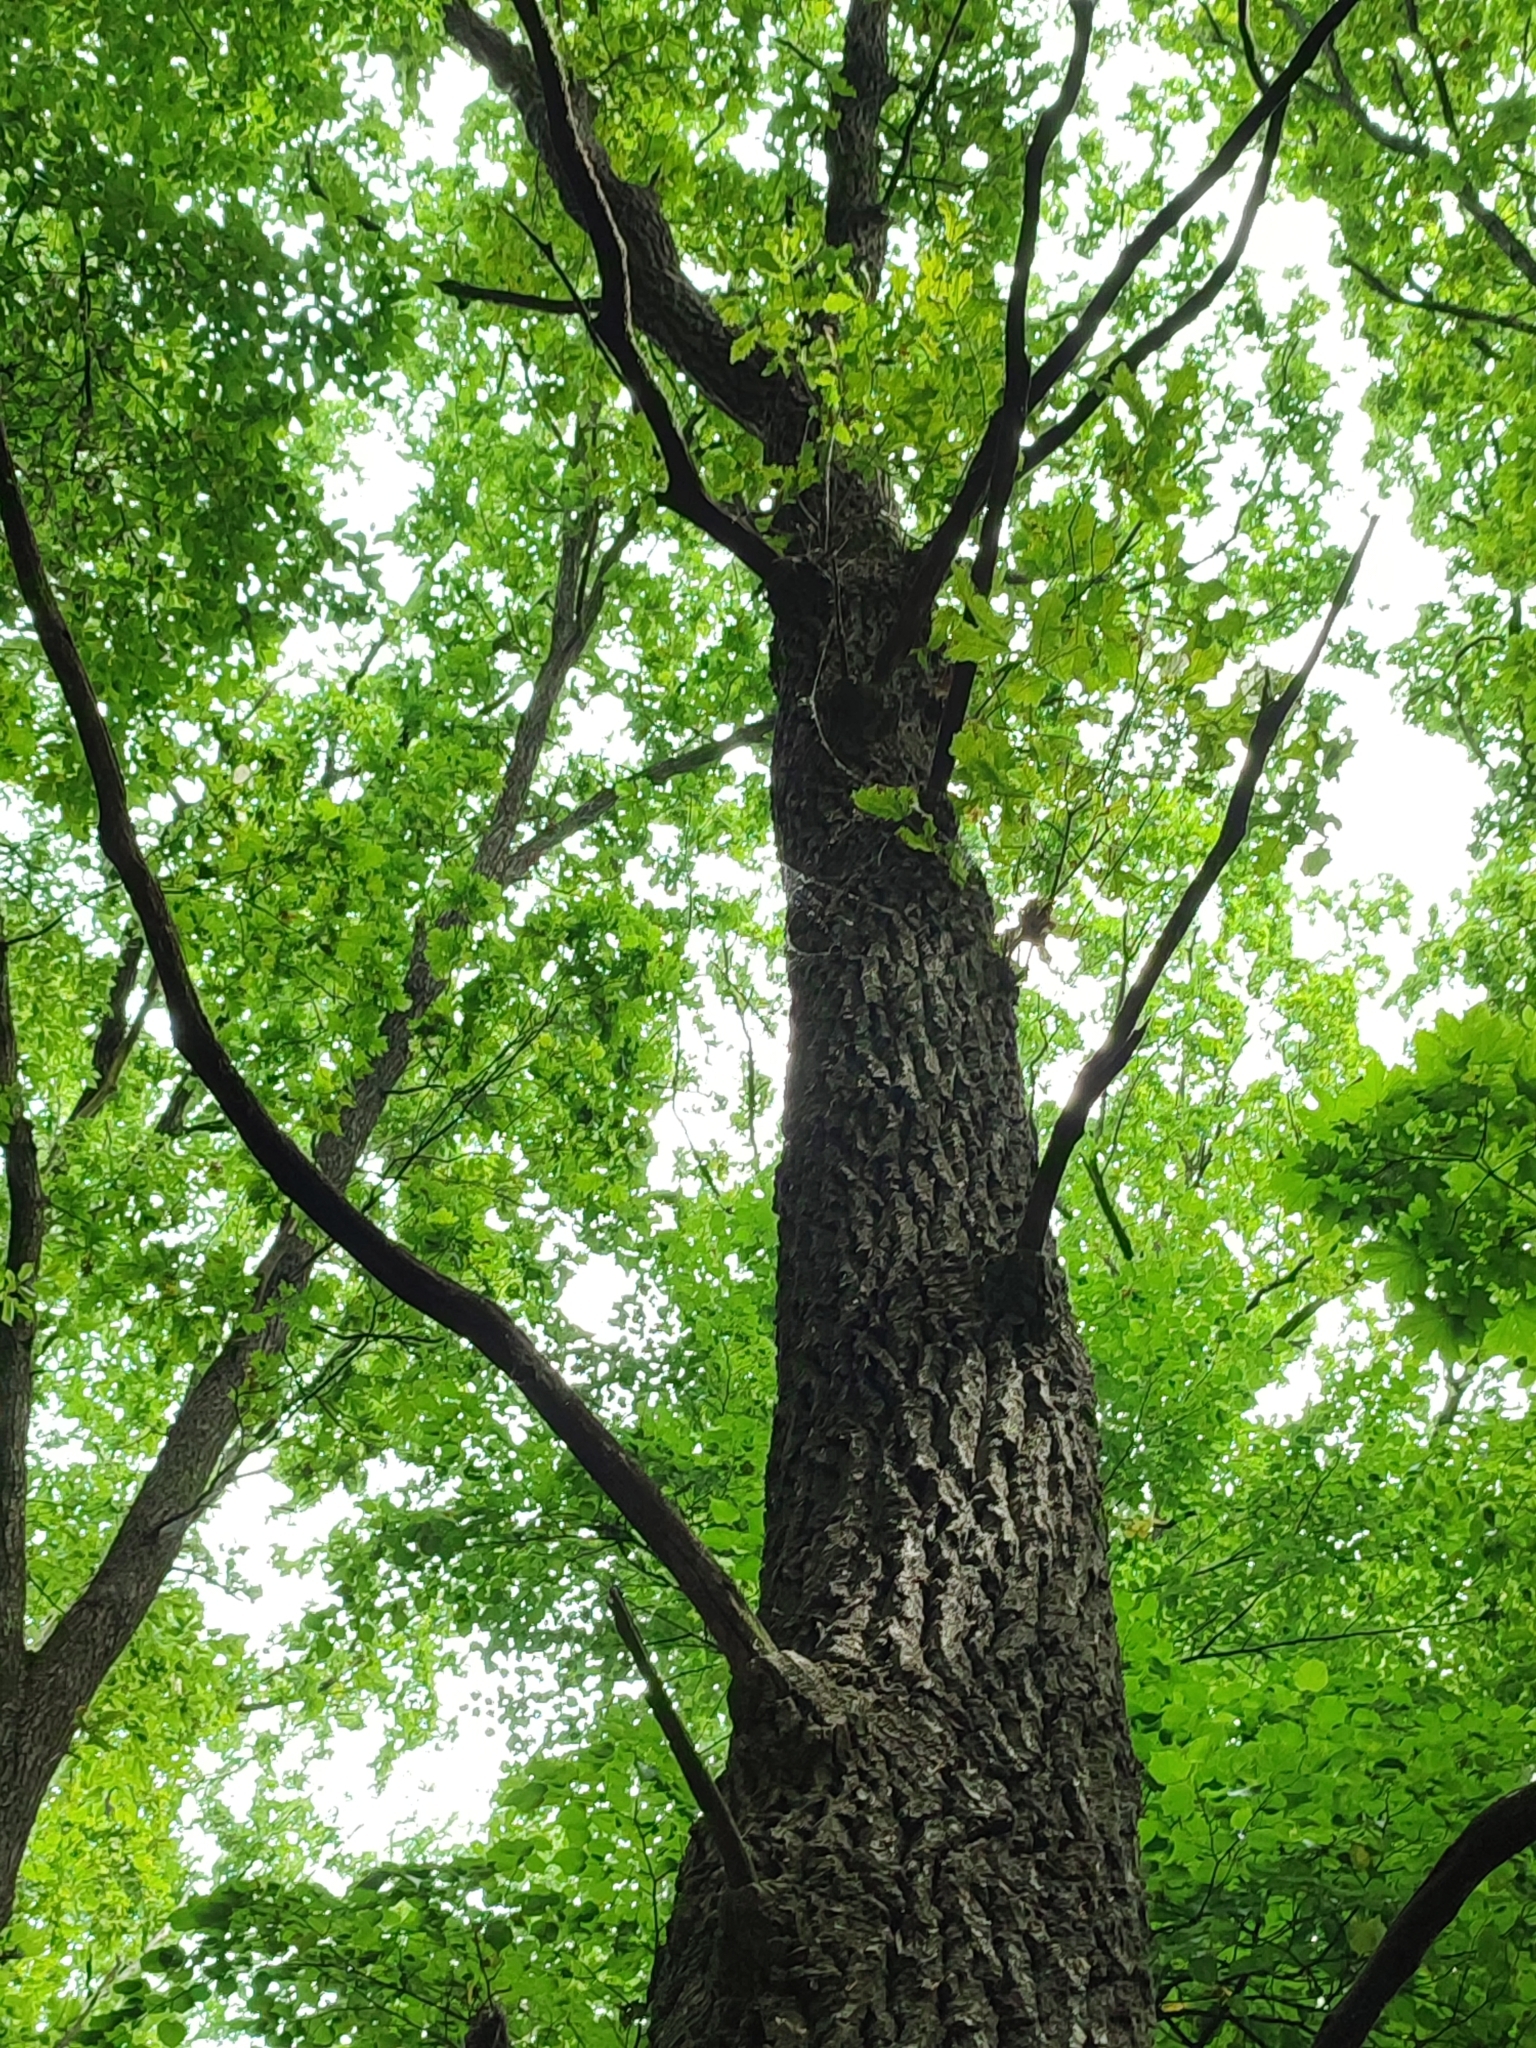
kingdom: Plantae
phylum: Tracheophyta
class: Magnoliopsida
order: Fagales
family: Fagaceae
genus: Quercus
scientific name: Quercus robur
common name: Pedunculate oak
